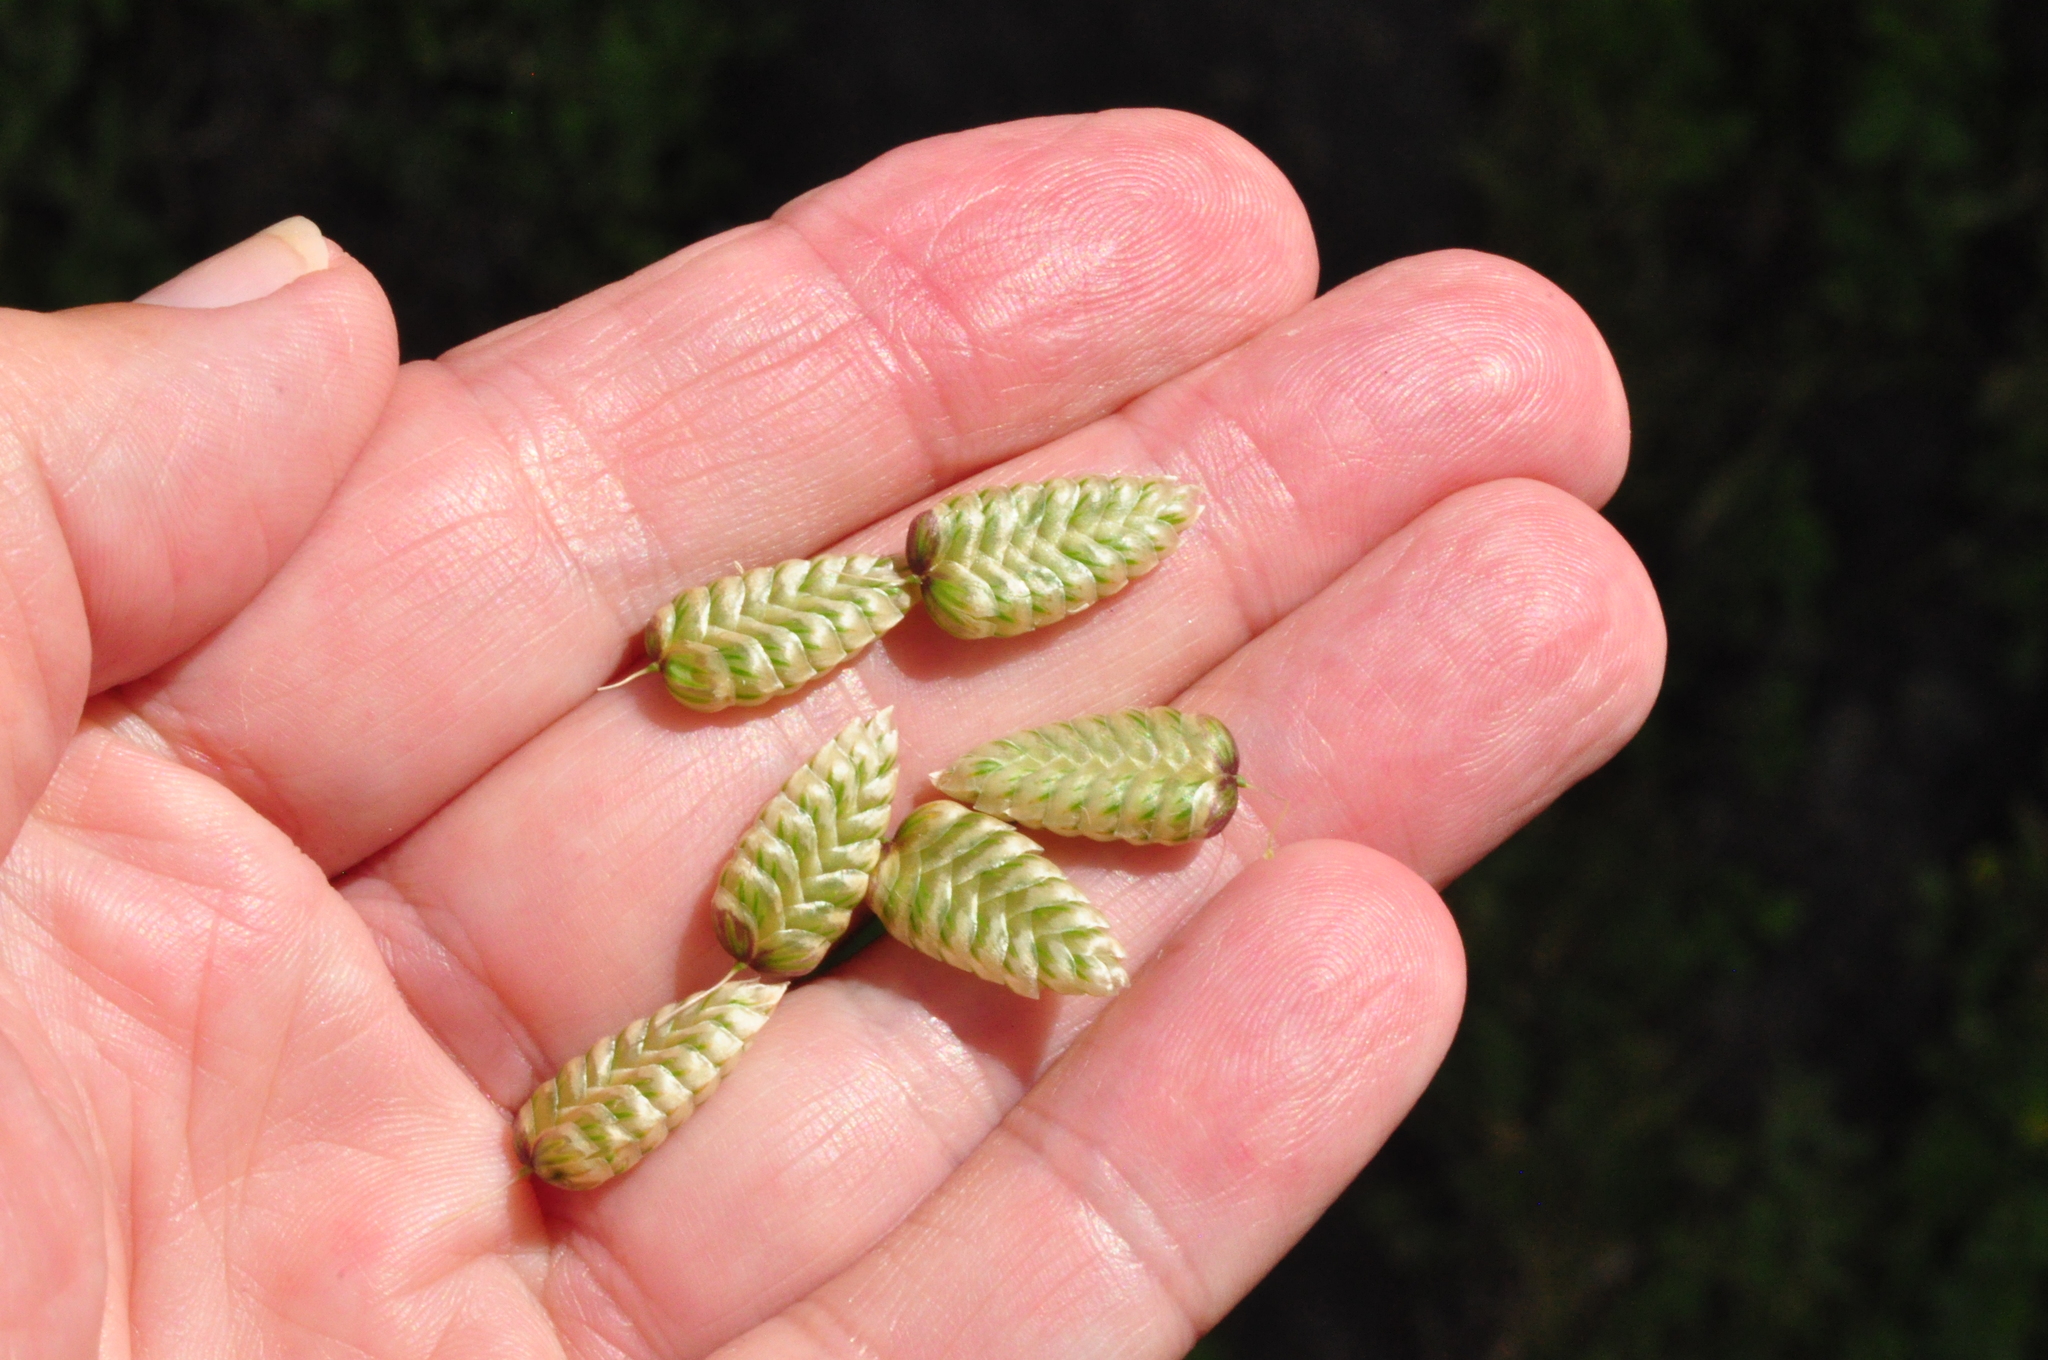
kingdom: Plantae
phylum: Tracheophyta
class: Liliopsida
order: Poales
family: Poaceae
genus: Briza
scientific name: Briza maxima
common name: Big quakinggrass
